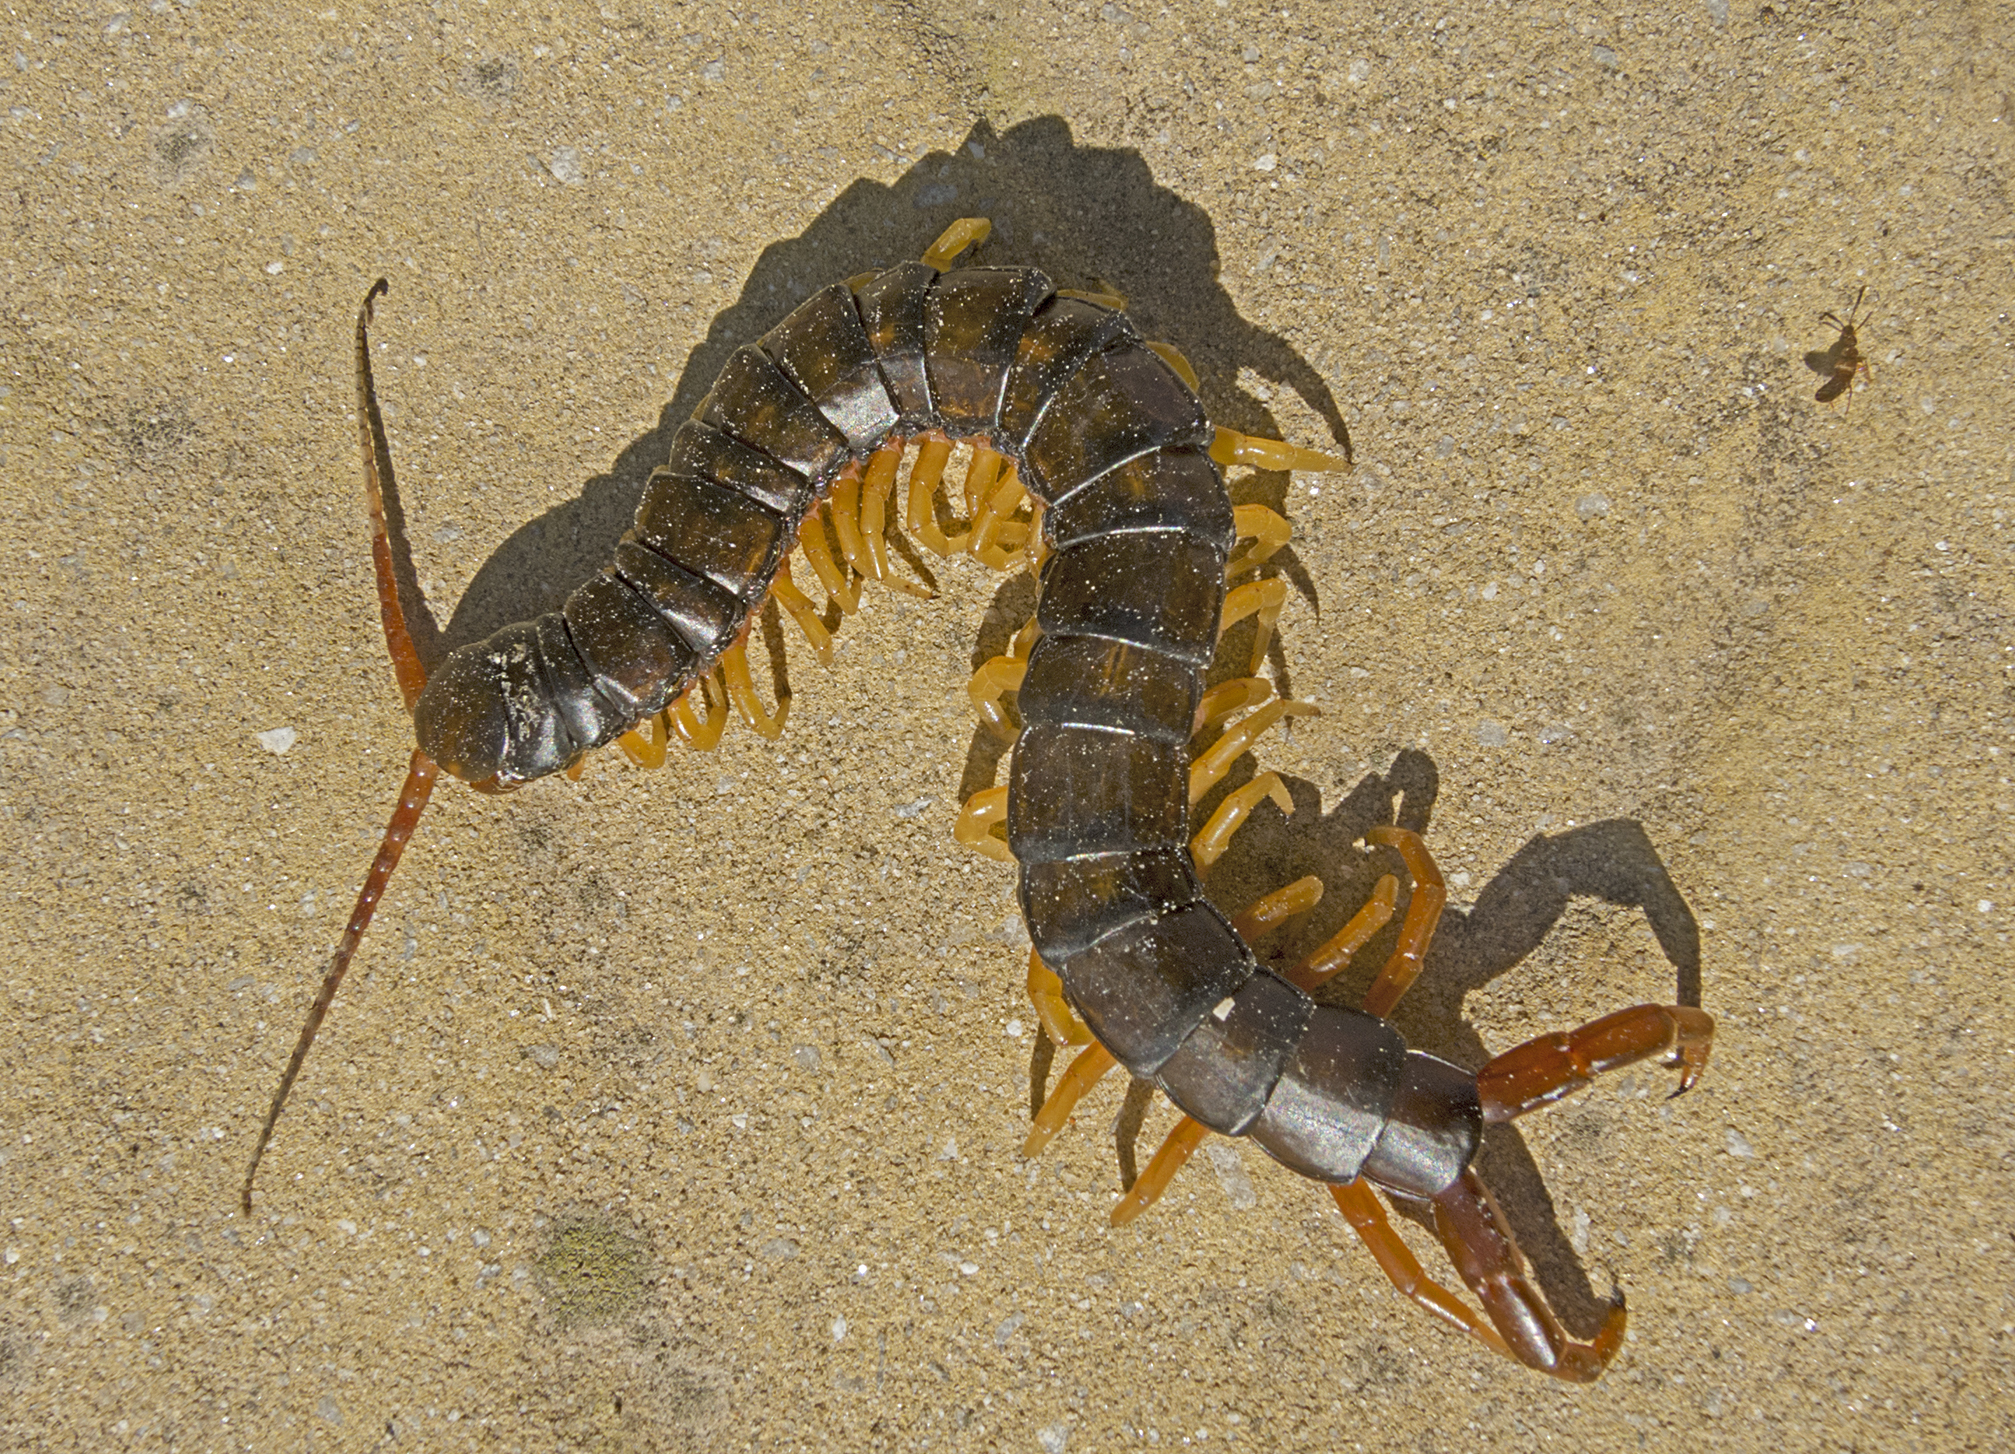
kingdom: Animalia
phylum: Arthropoda
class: Chilopoda
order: Scolopendromorpha
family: Scolopendridae
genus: Scolopendra
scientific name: Scolopendra cingulata
